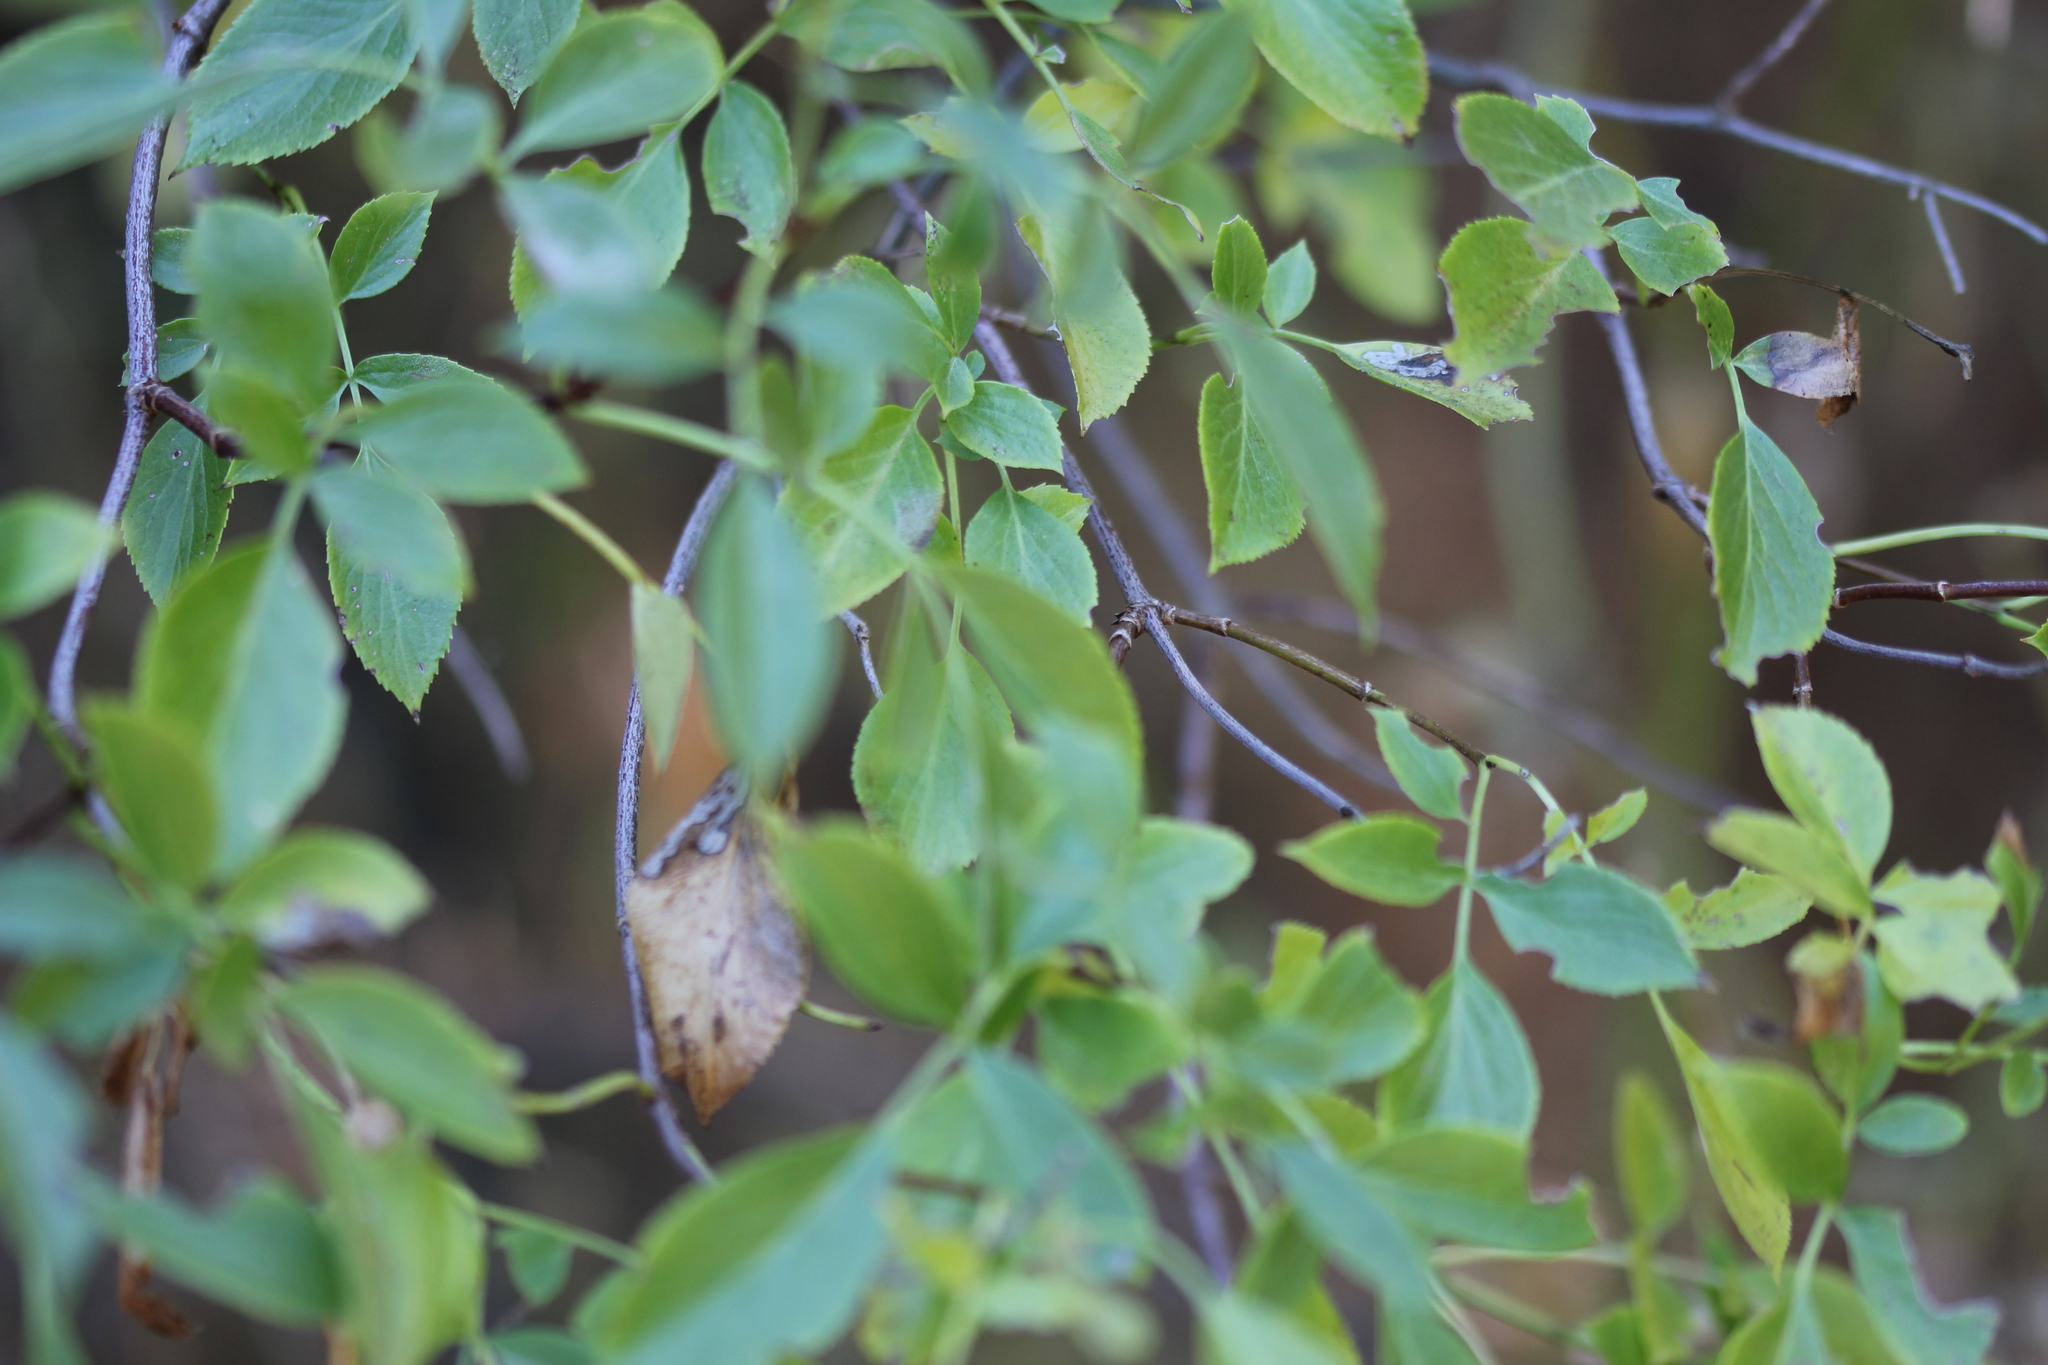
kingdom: Plantae
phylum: Tracheophyta
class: Magnoliopsida
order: Dipsacales
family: Viburnaceae
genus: Sambucus
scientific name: Sambucus cerulea
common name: Blue elder
